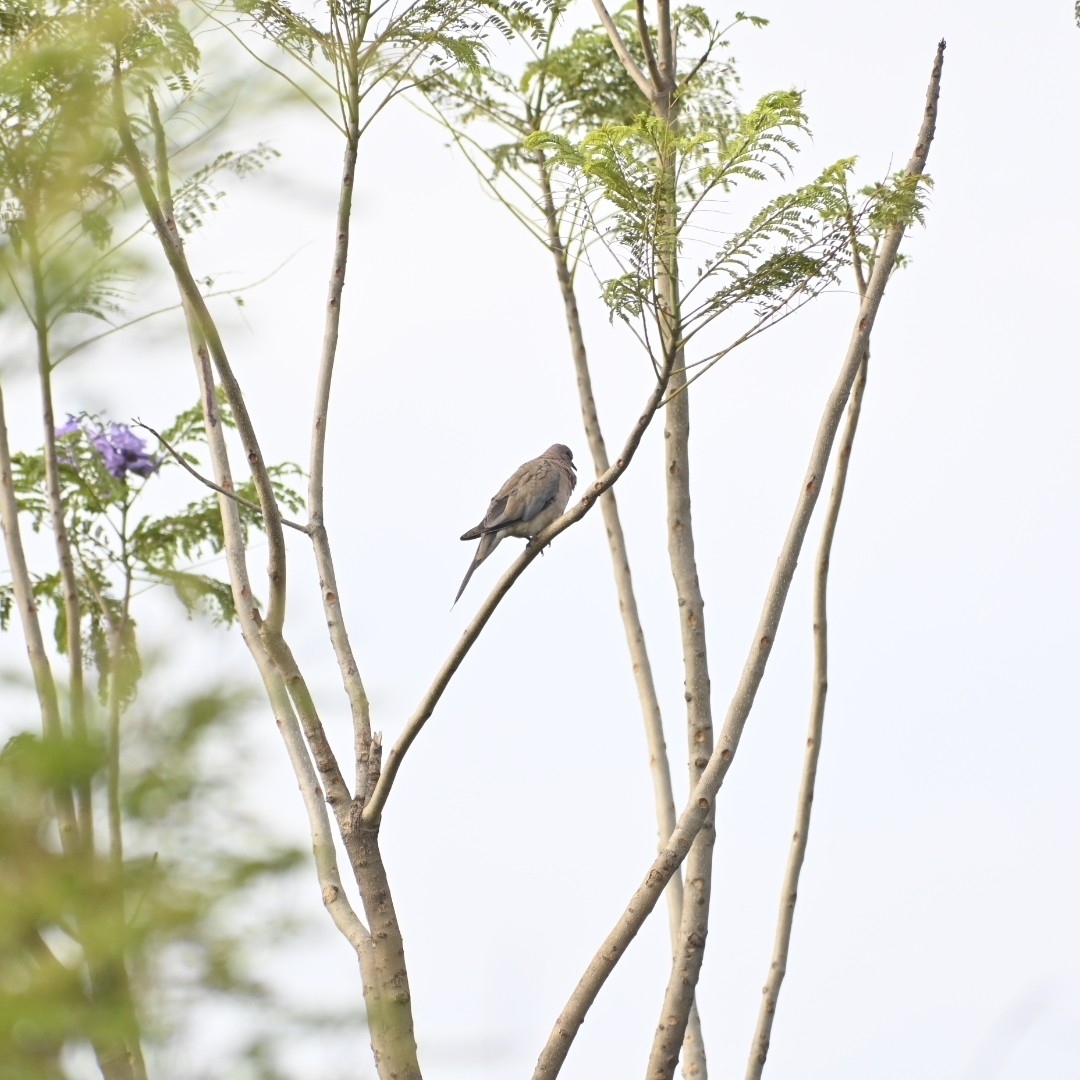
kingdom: Animalia
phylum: Chordata
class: Aves
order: Columbiformes
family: Columbidae
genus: Spilopelia
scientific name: Spilopelia senegalensis
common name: Laughing dove
